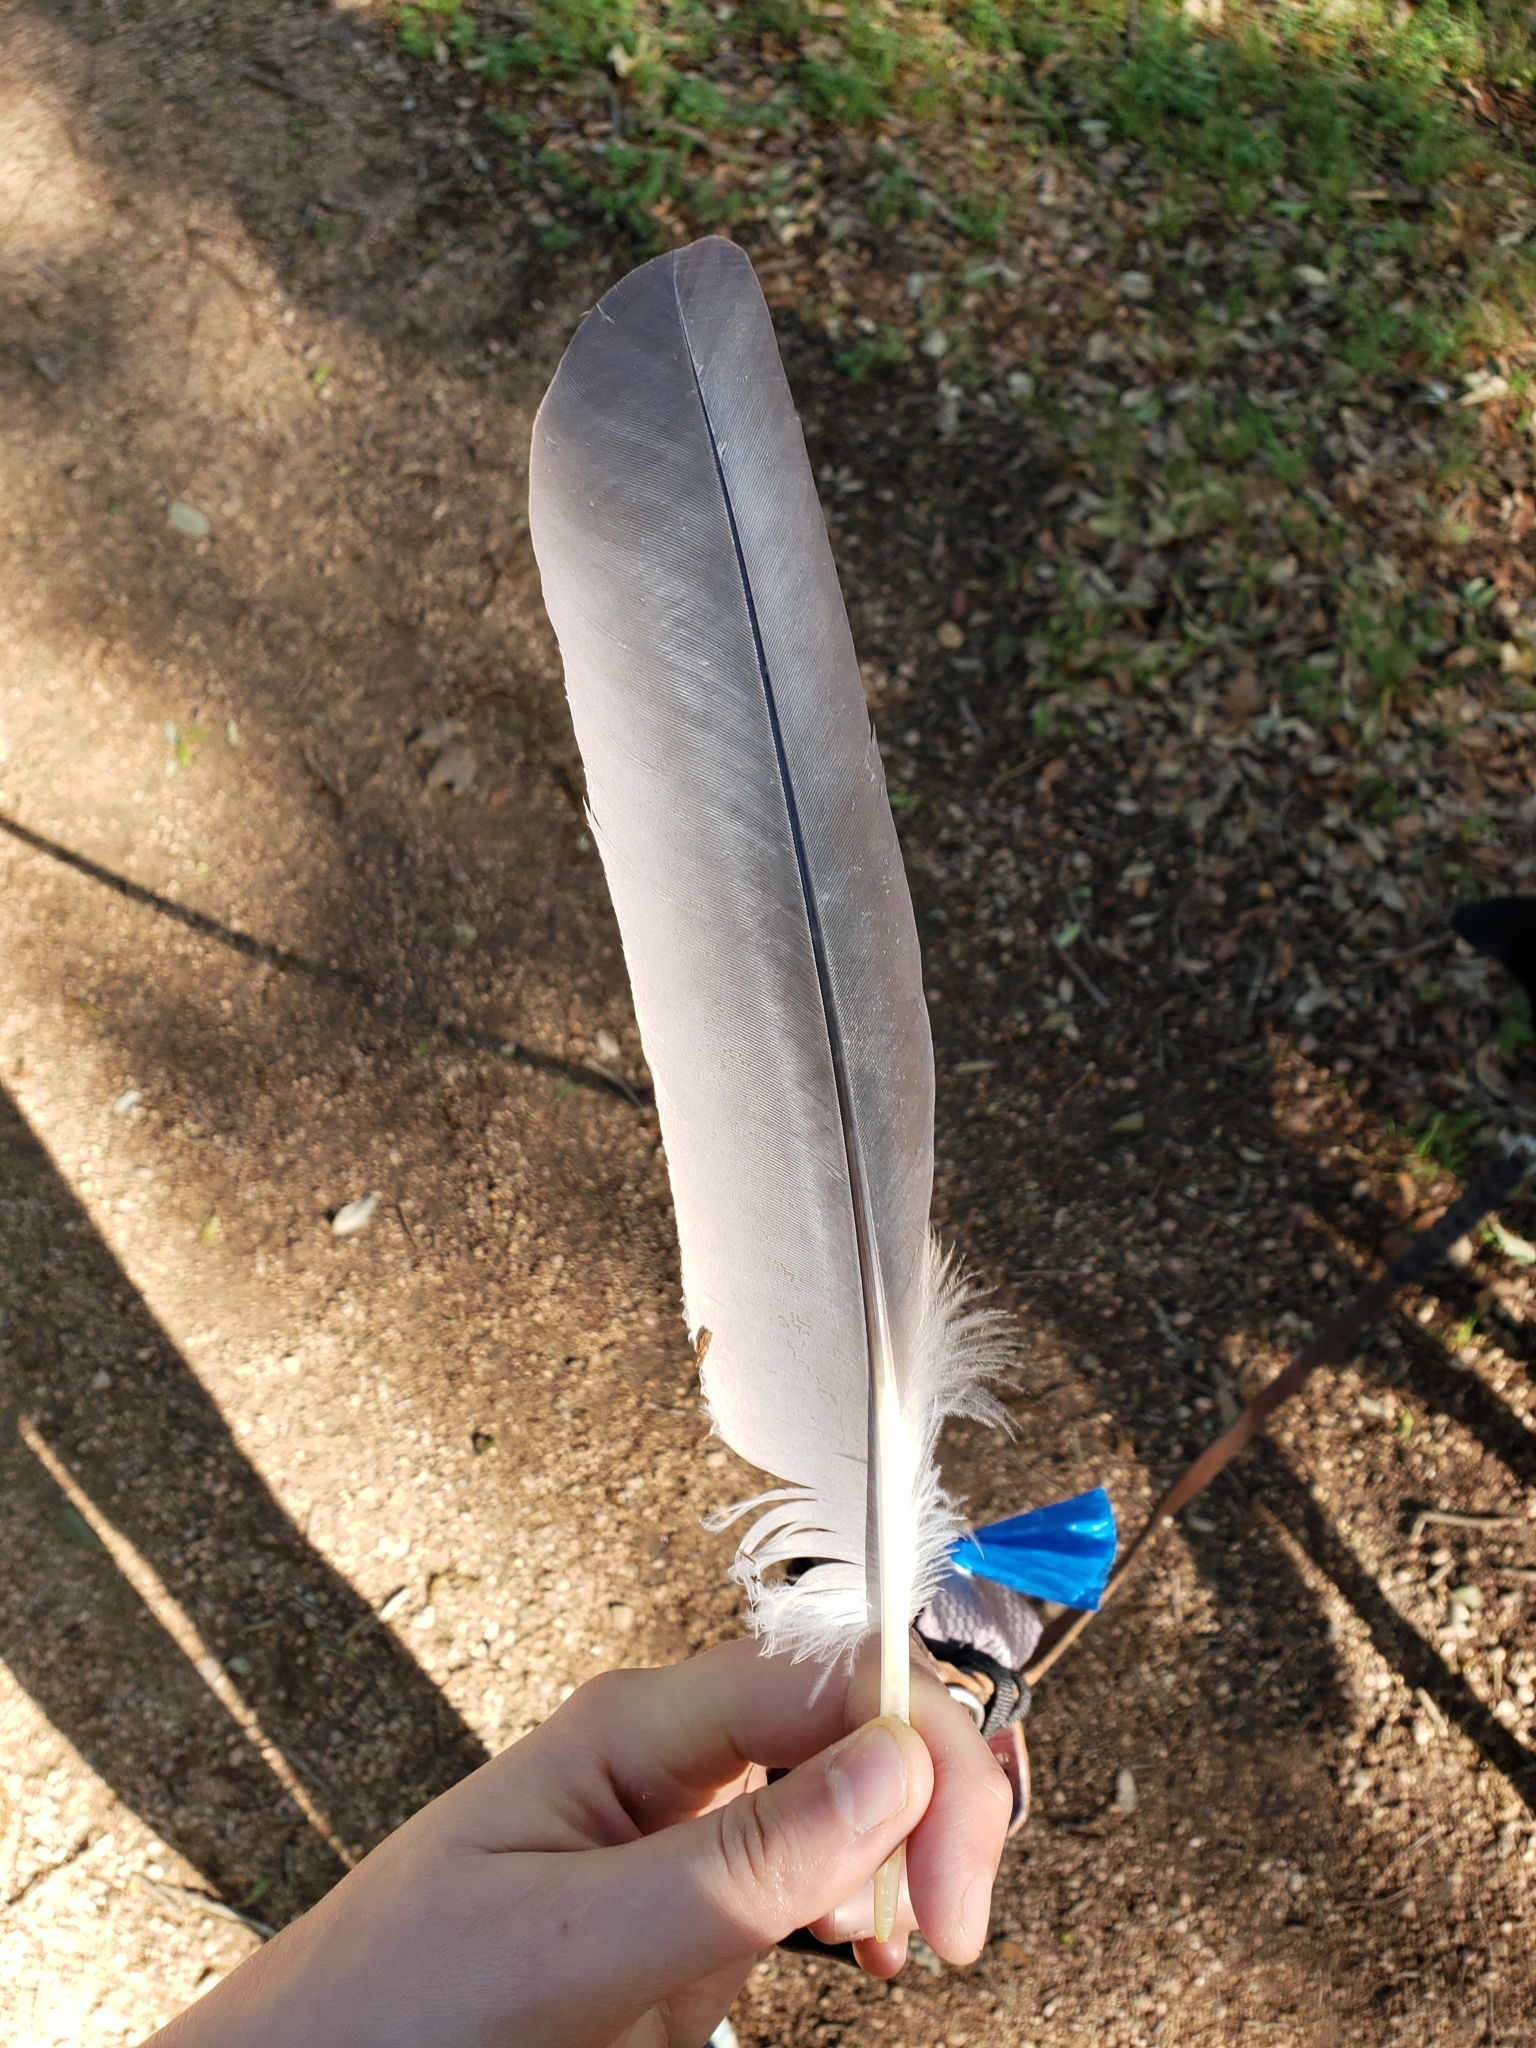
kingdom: Animalia
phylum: Chordata
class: Aves
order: Pelecaniformes
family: Ardeidae
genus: Ardea
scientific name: Ardea herodias
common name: Great blue heron
